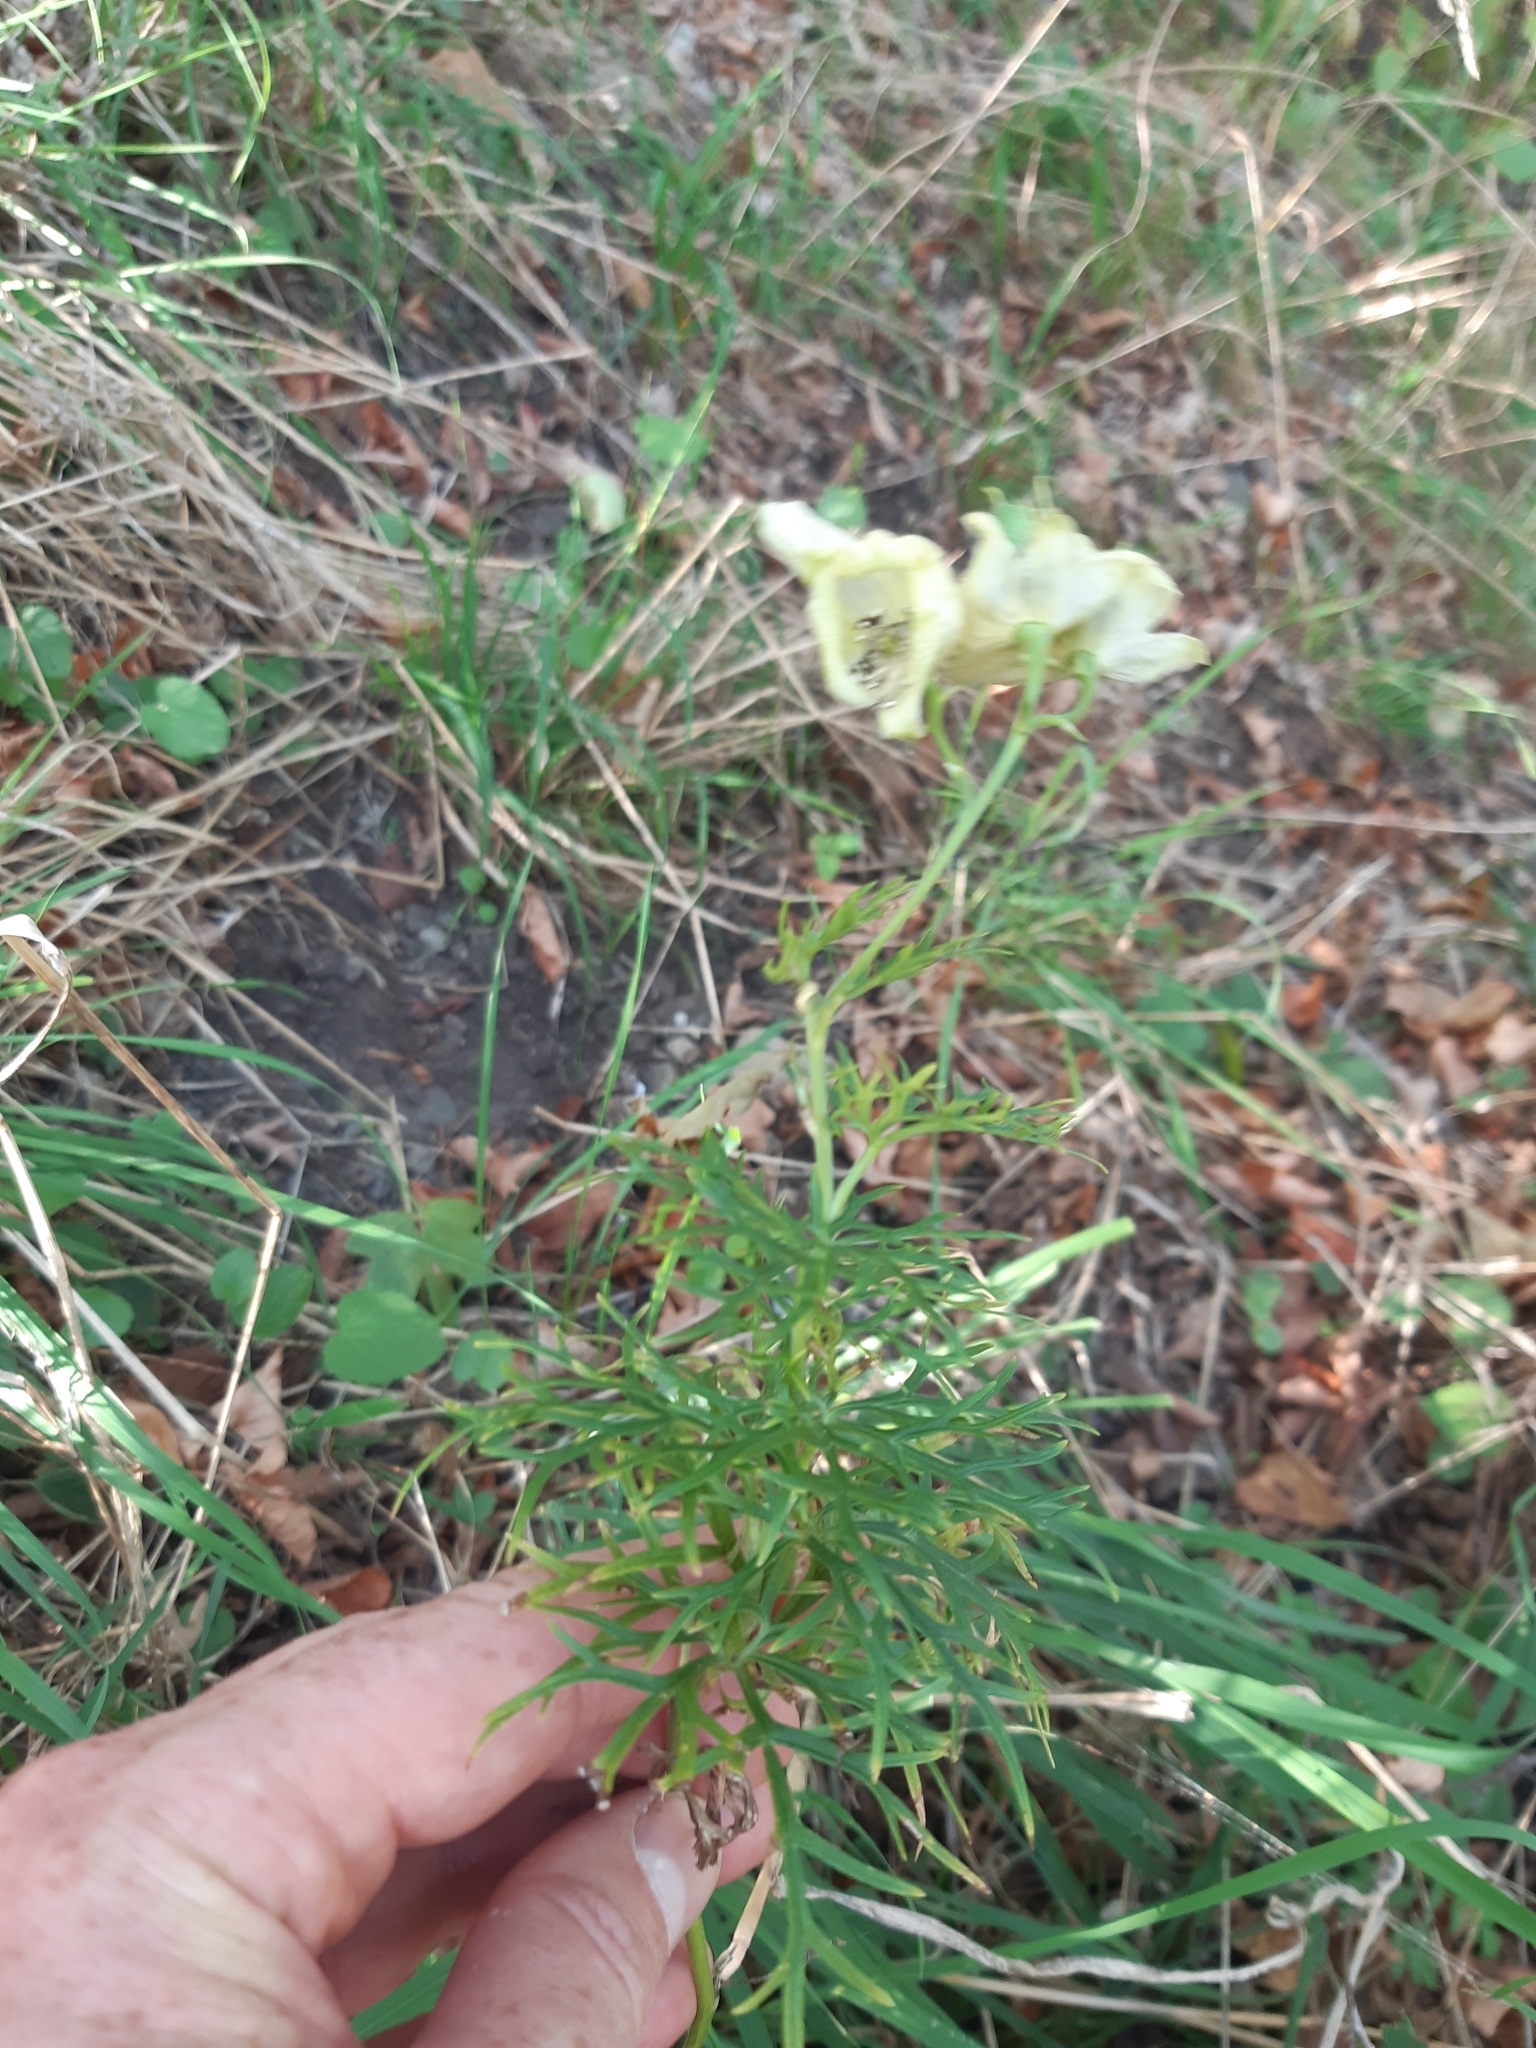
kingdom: Plantae
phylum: Tracheophyta
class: Magnoliopsida
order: Ranunculales
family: Ranunculaceae
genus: Aconitum
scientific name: Aconitum anthora
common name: Yellow monkshood
